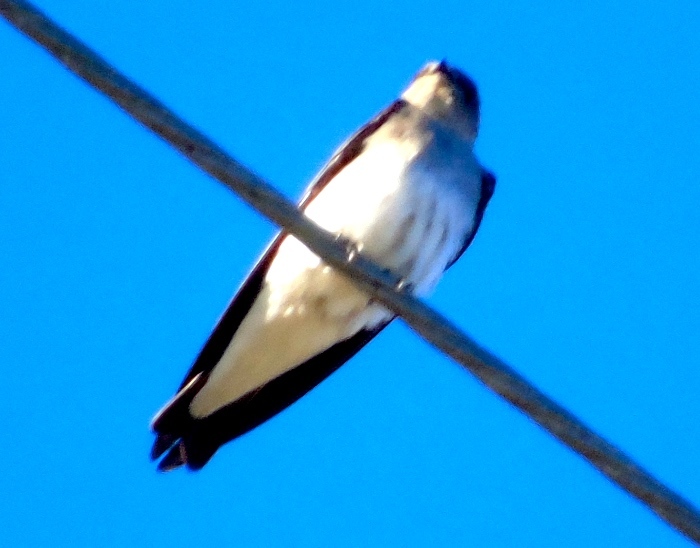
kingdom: Animalia
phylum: Chordata
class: Aves
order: Passeriformes
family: Hirundinidae
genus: Stelgidopteryx
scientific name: Stelgidopteryx serripennis
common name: Northern rough-winged swallow
